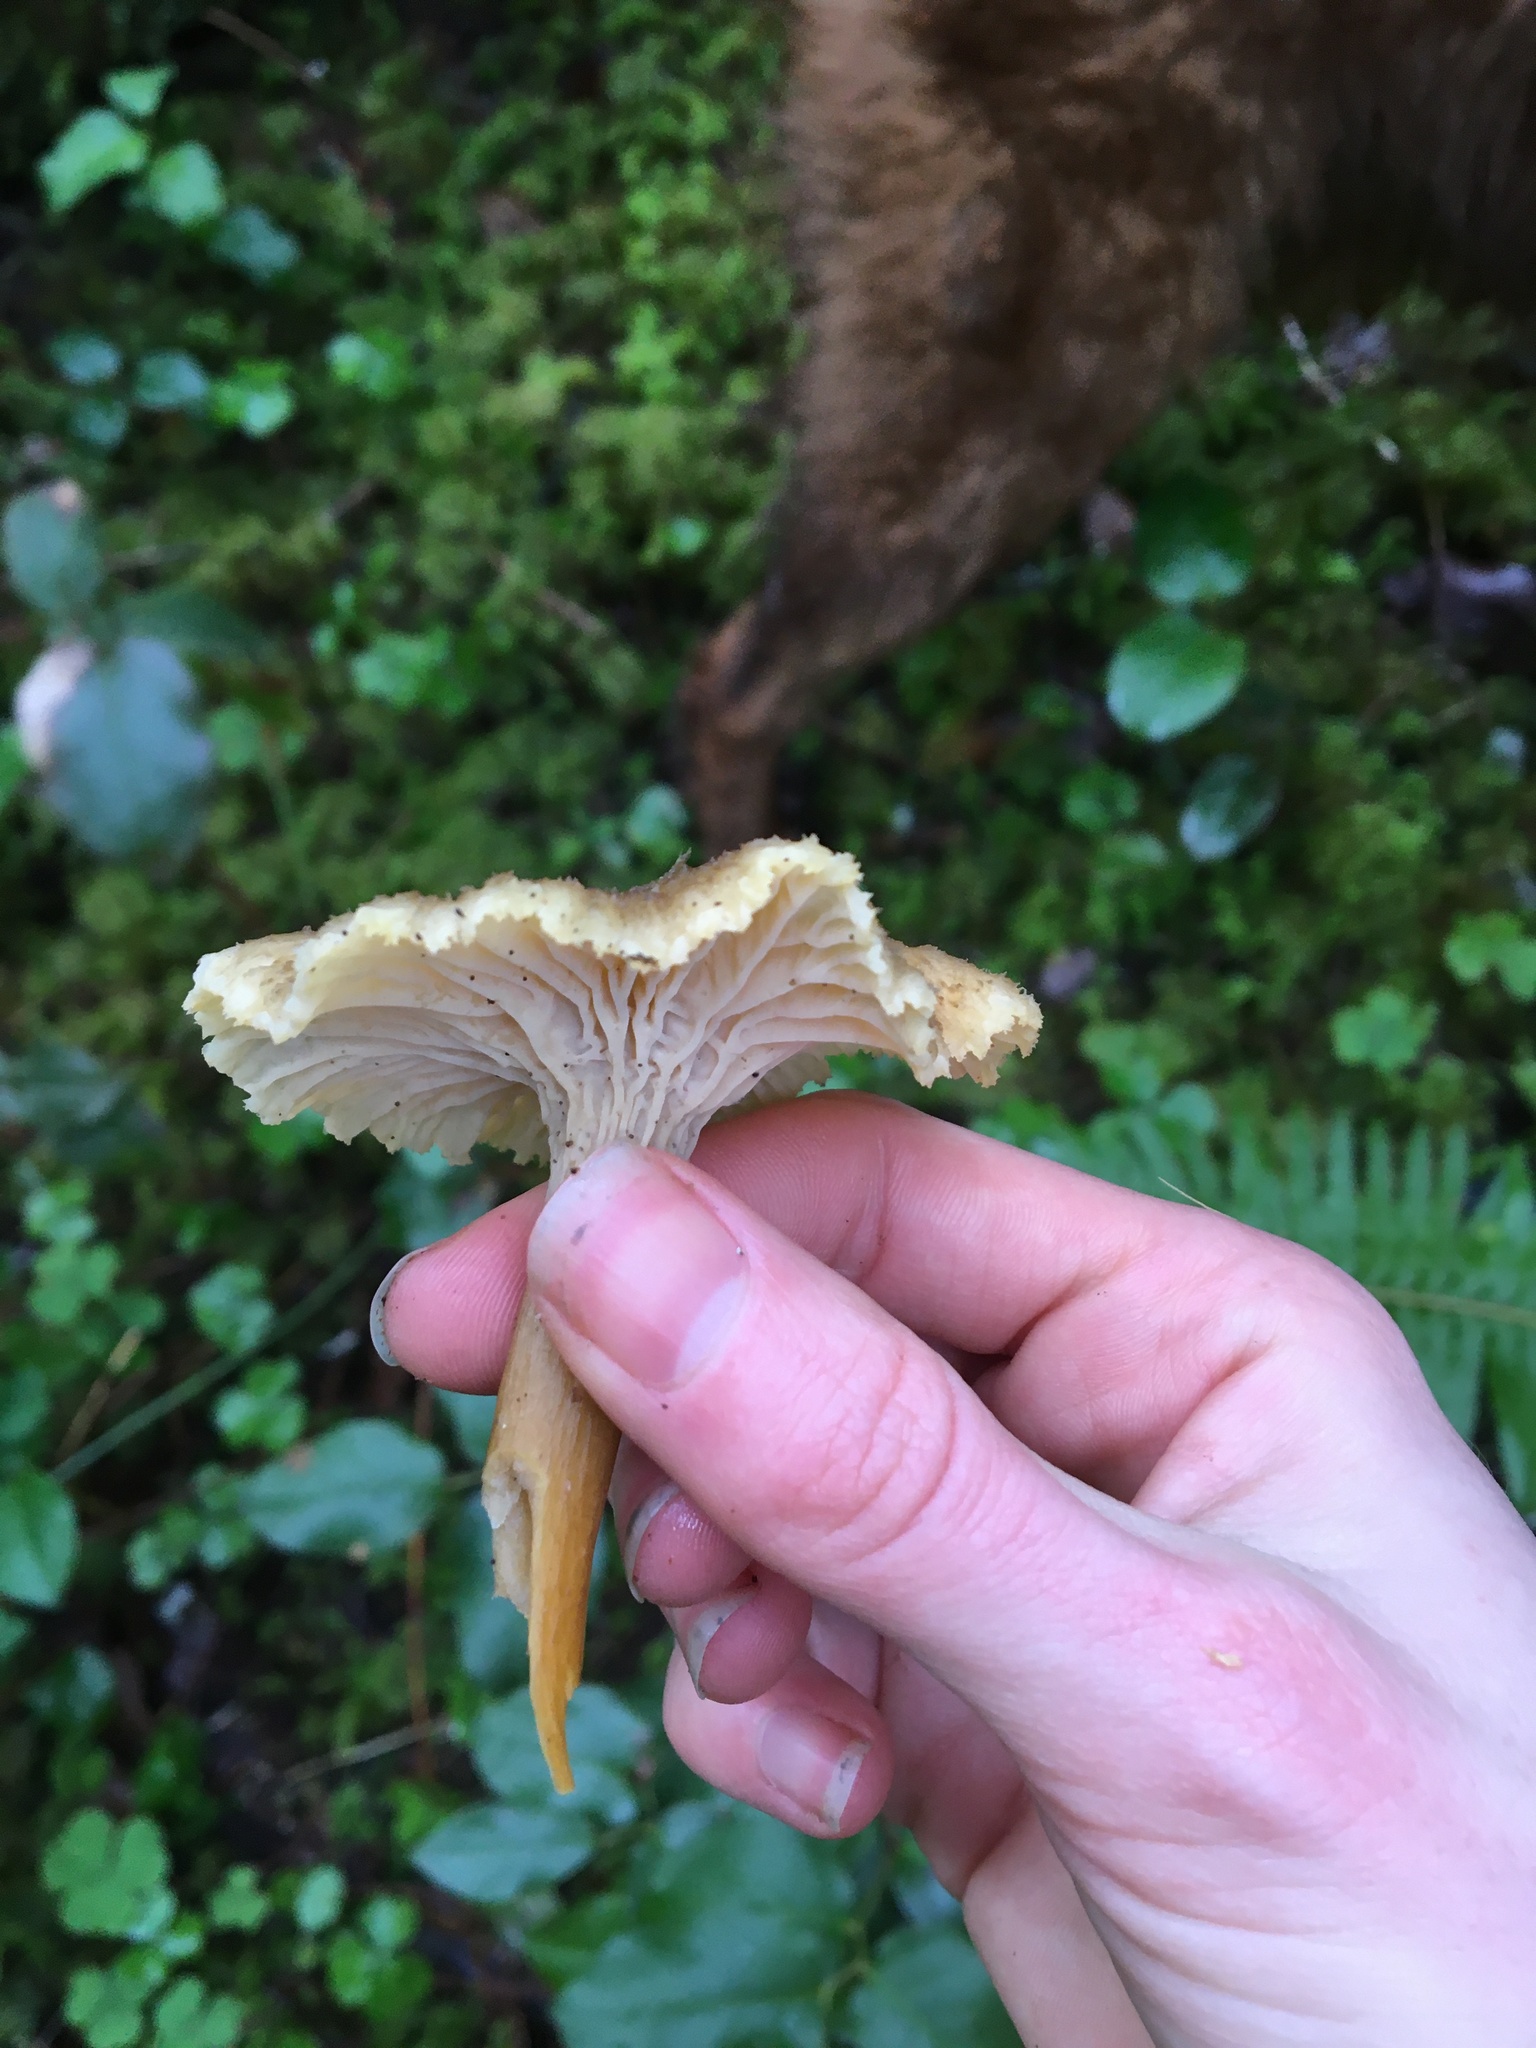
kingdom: Fungi
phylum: Basidiomycota
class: Agaricomycetes
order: Cantharellales
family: Hydnaceae
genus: Craterellus
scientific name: Craterellus tubaeformis
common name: Yellowfoot
